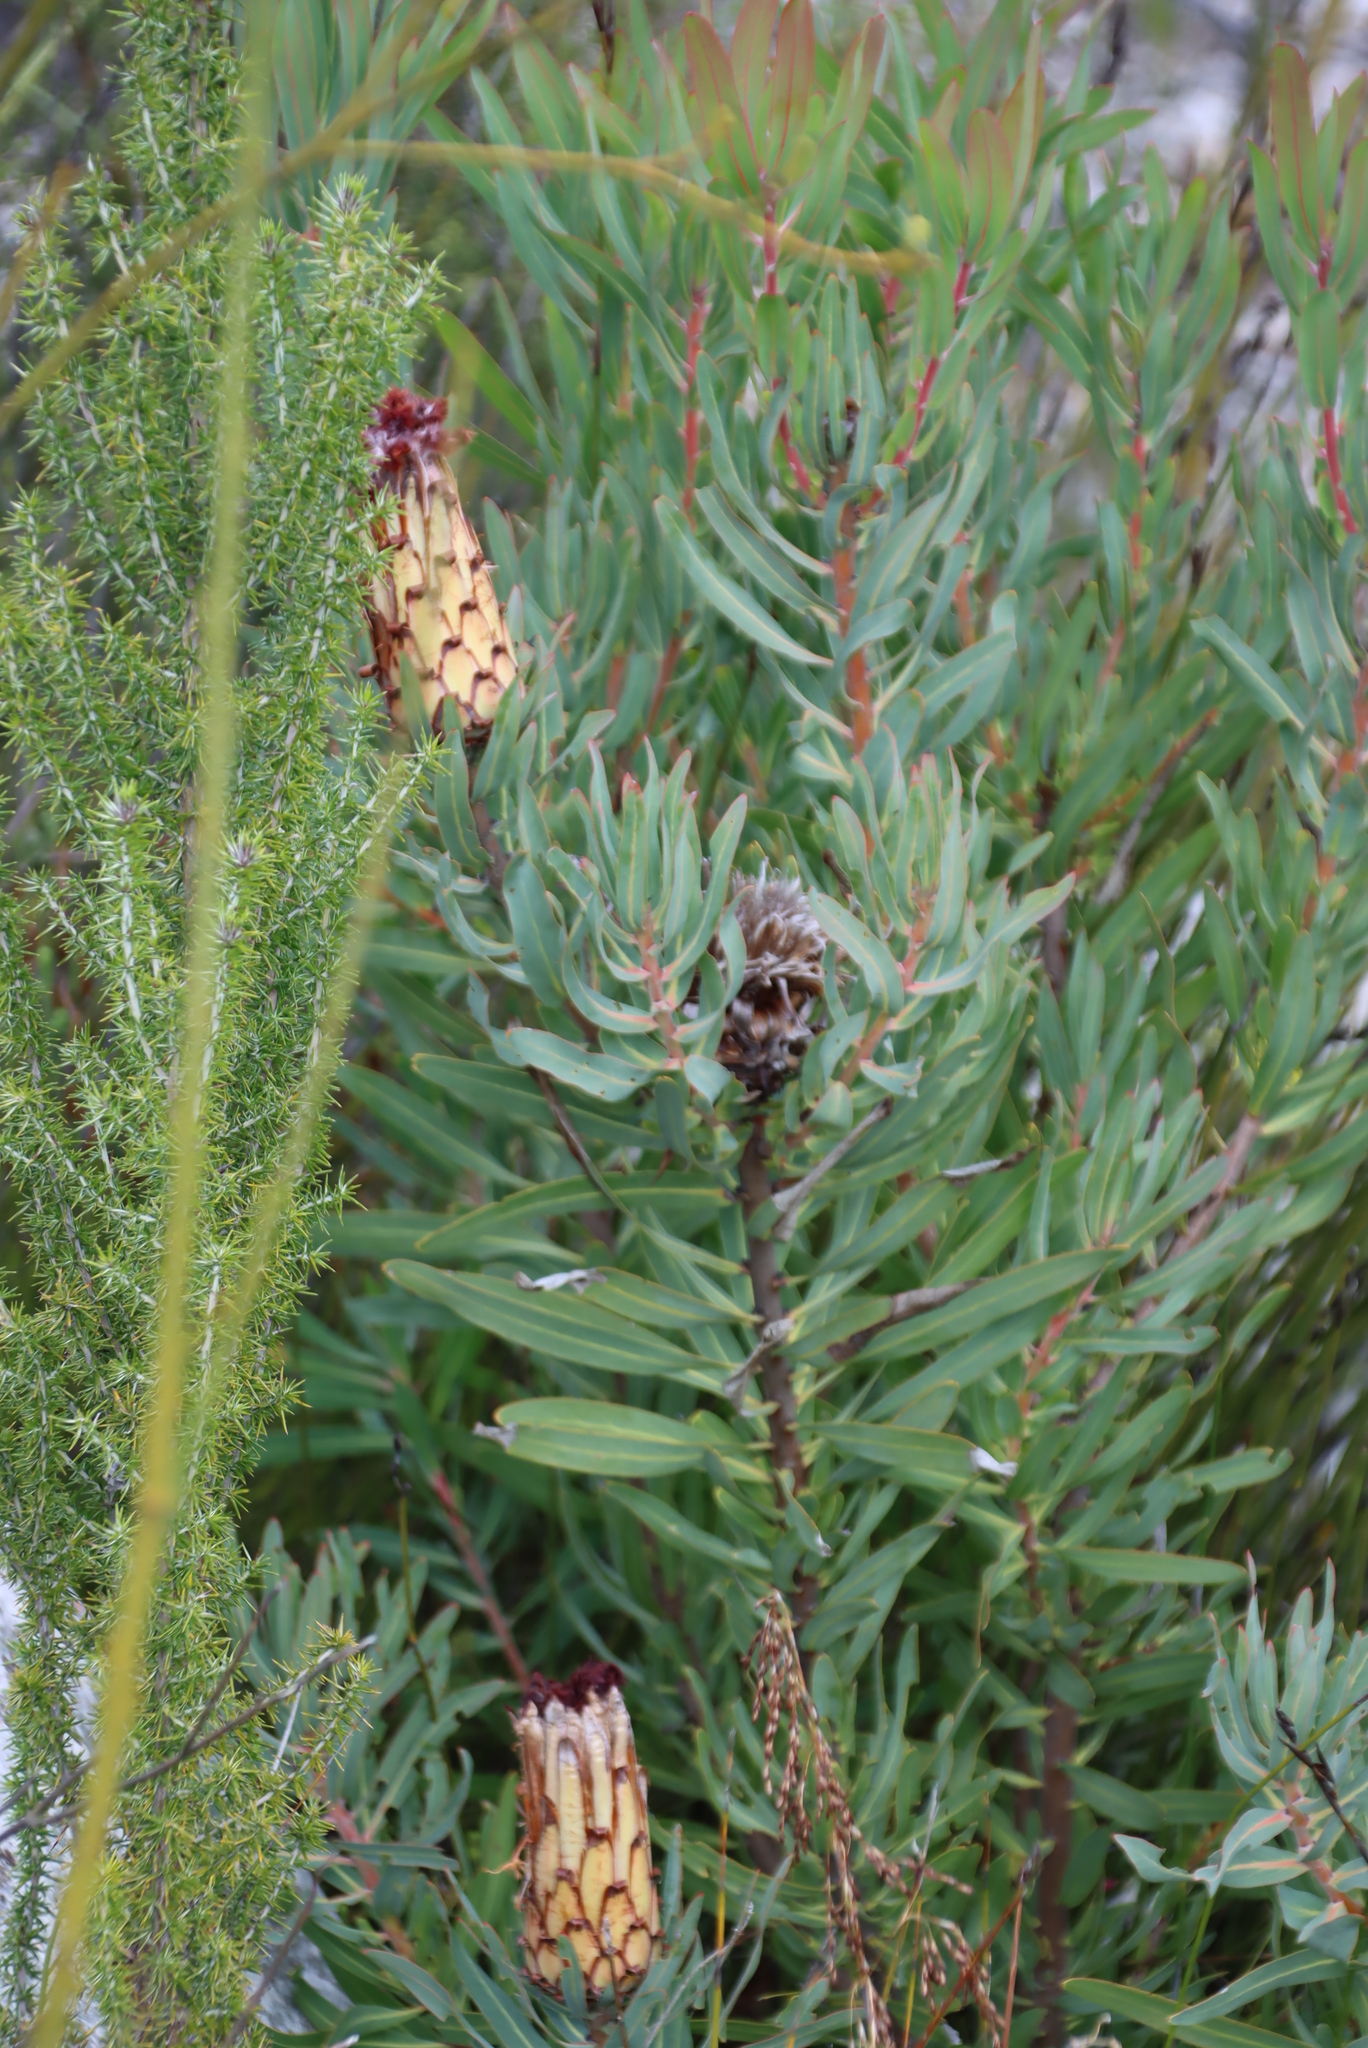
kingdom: Plantae
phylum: Tracheophyta
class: Magnoliopsida
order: Proteales
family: Proteaceae
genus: Protea
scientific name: Protea neriifolia
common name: Blue sugarbush
